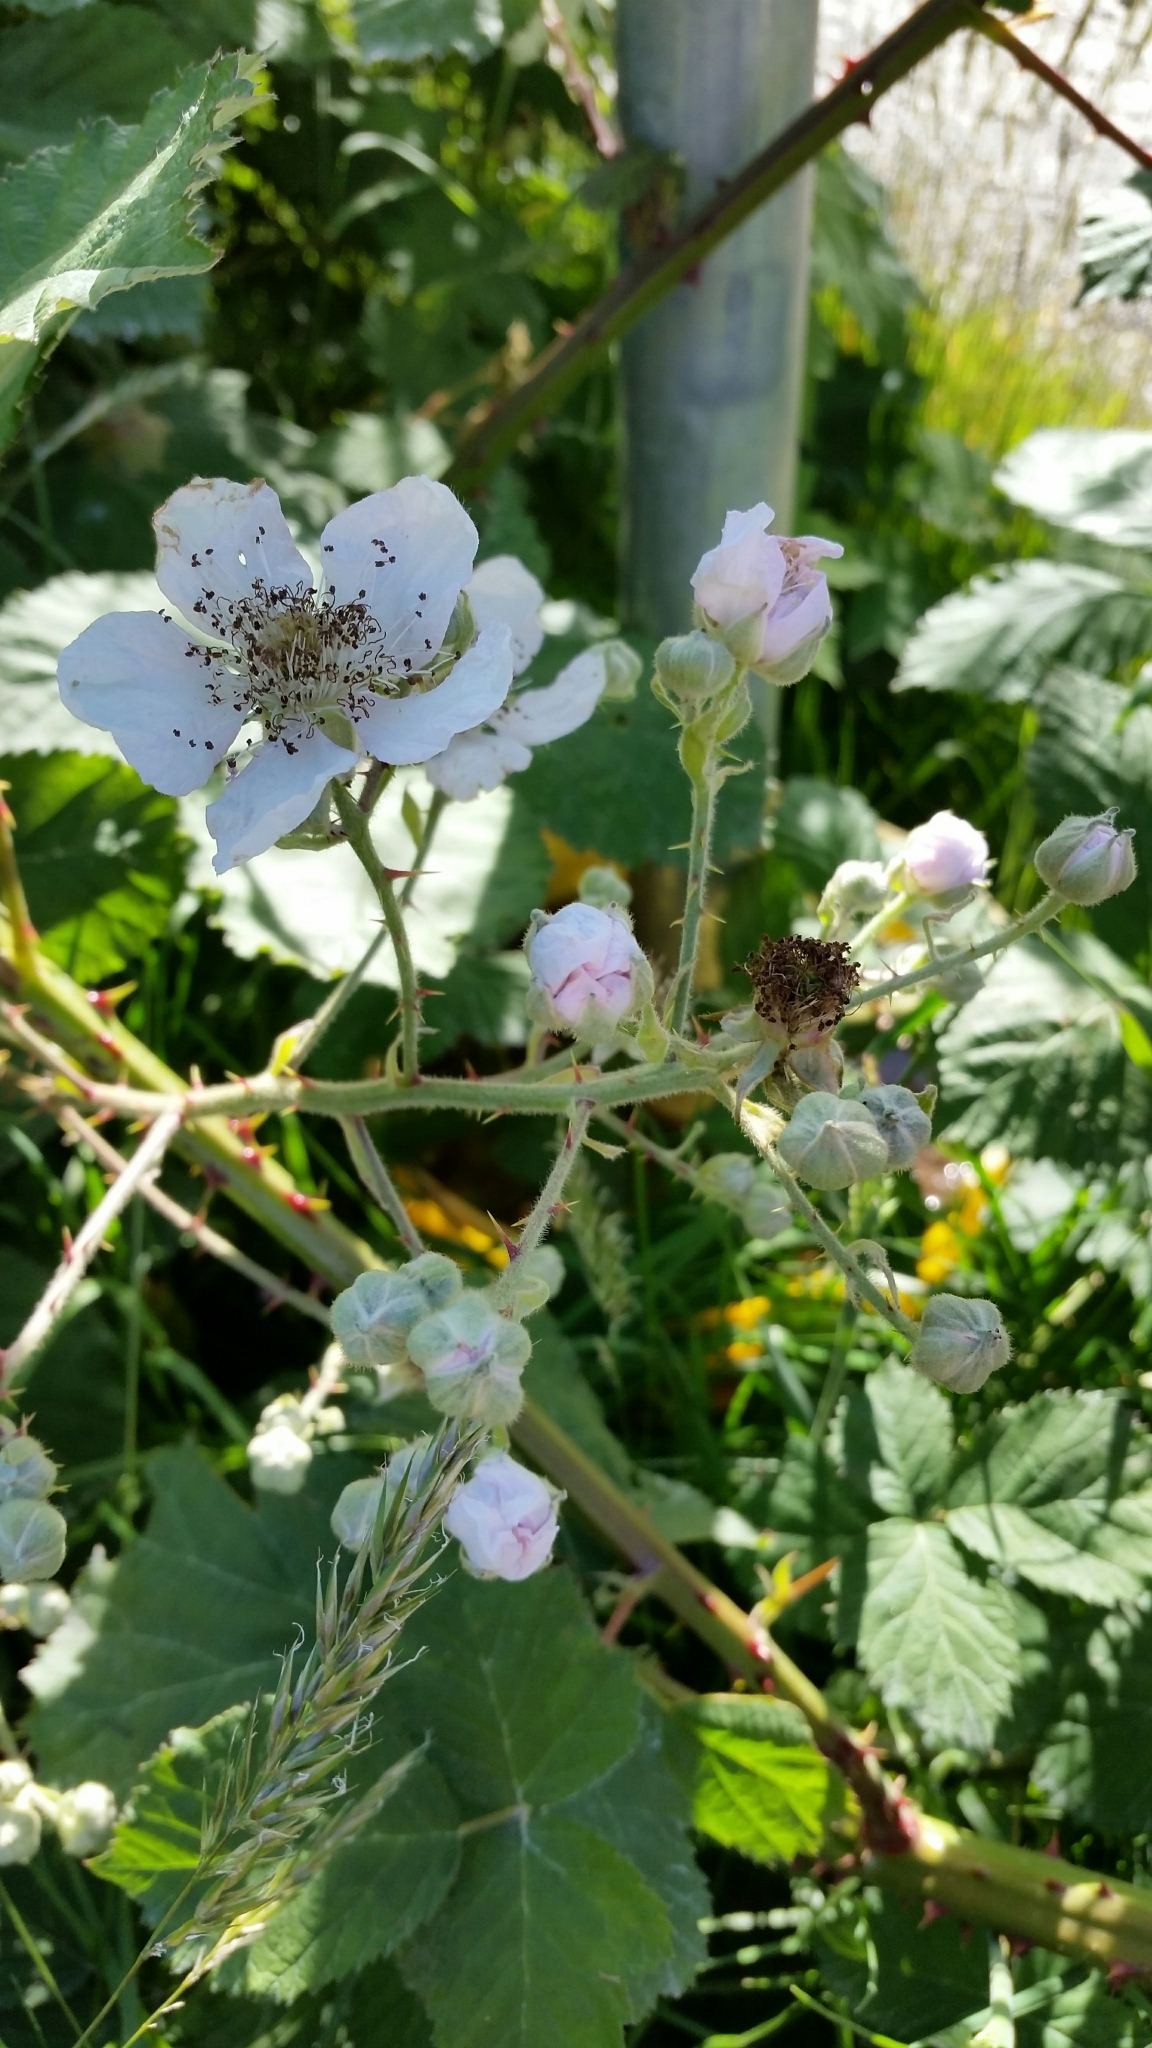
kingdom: Plantae
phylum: Tracheophyta
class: Magnoliopsida
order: Rosales
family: Rosaceae
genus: Rubus
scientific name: Rubus armeniacus
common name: Himalayan blackberry
